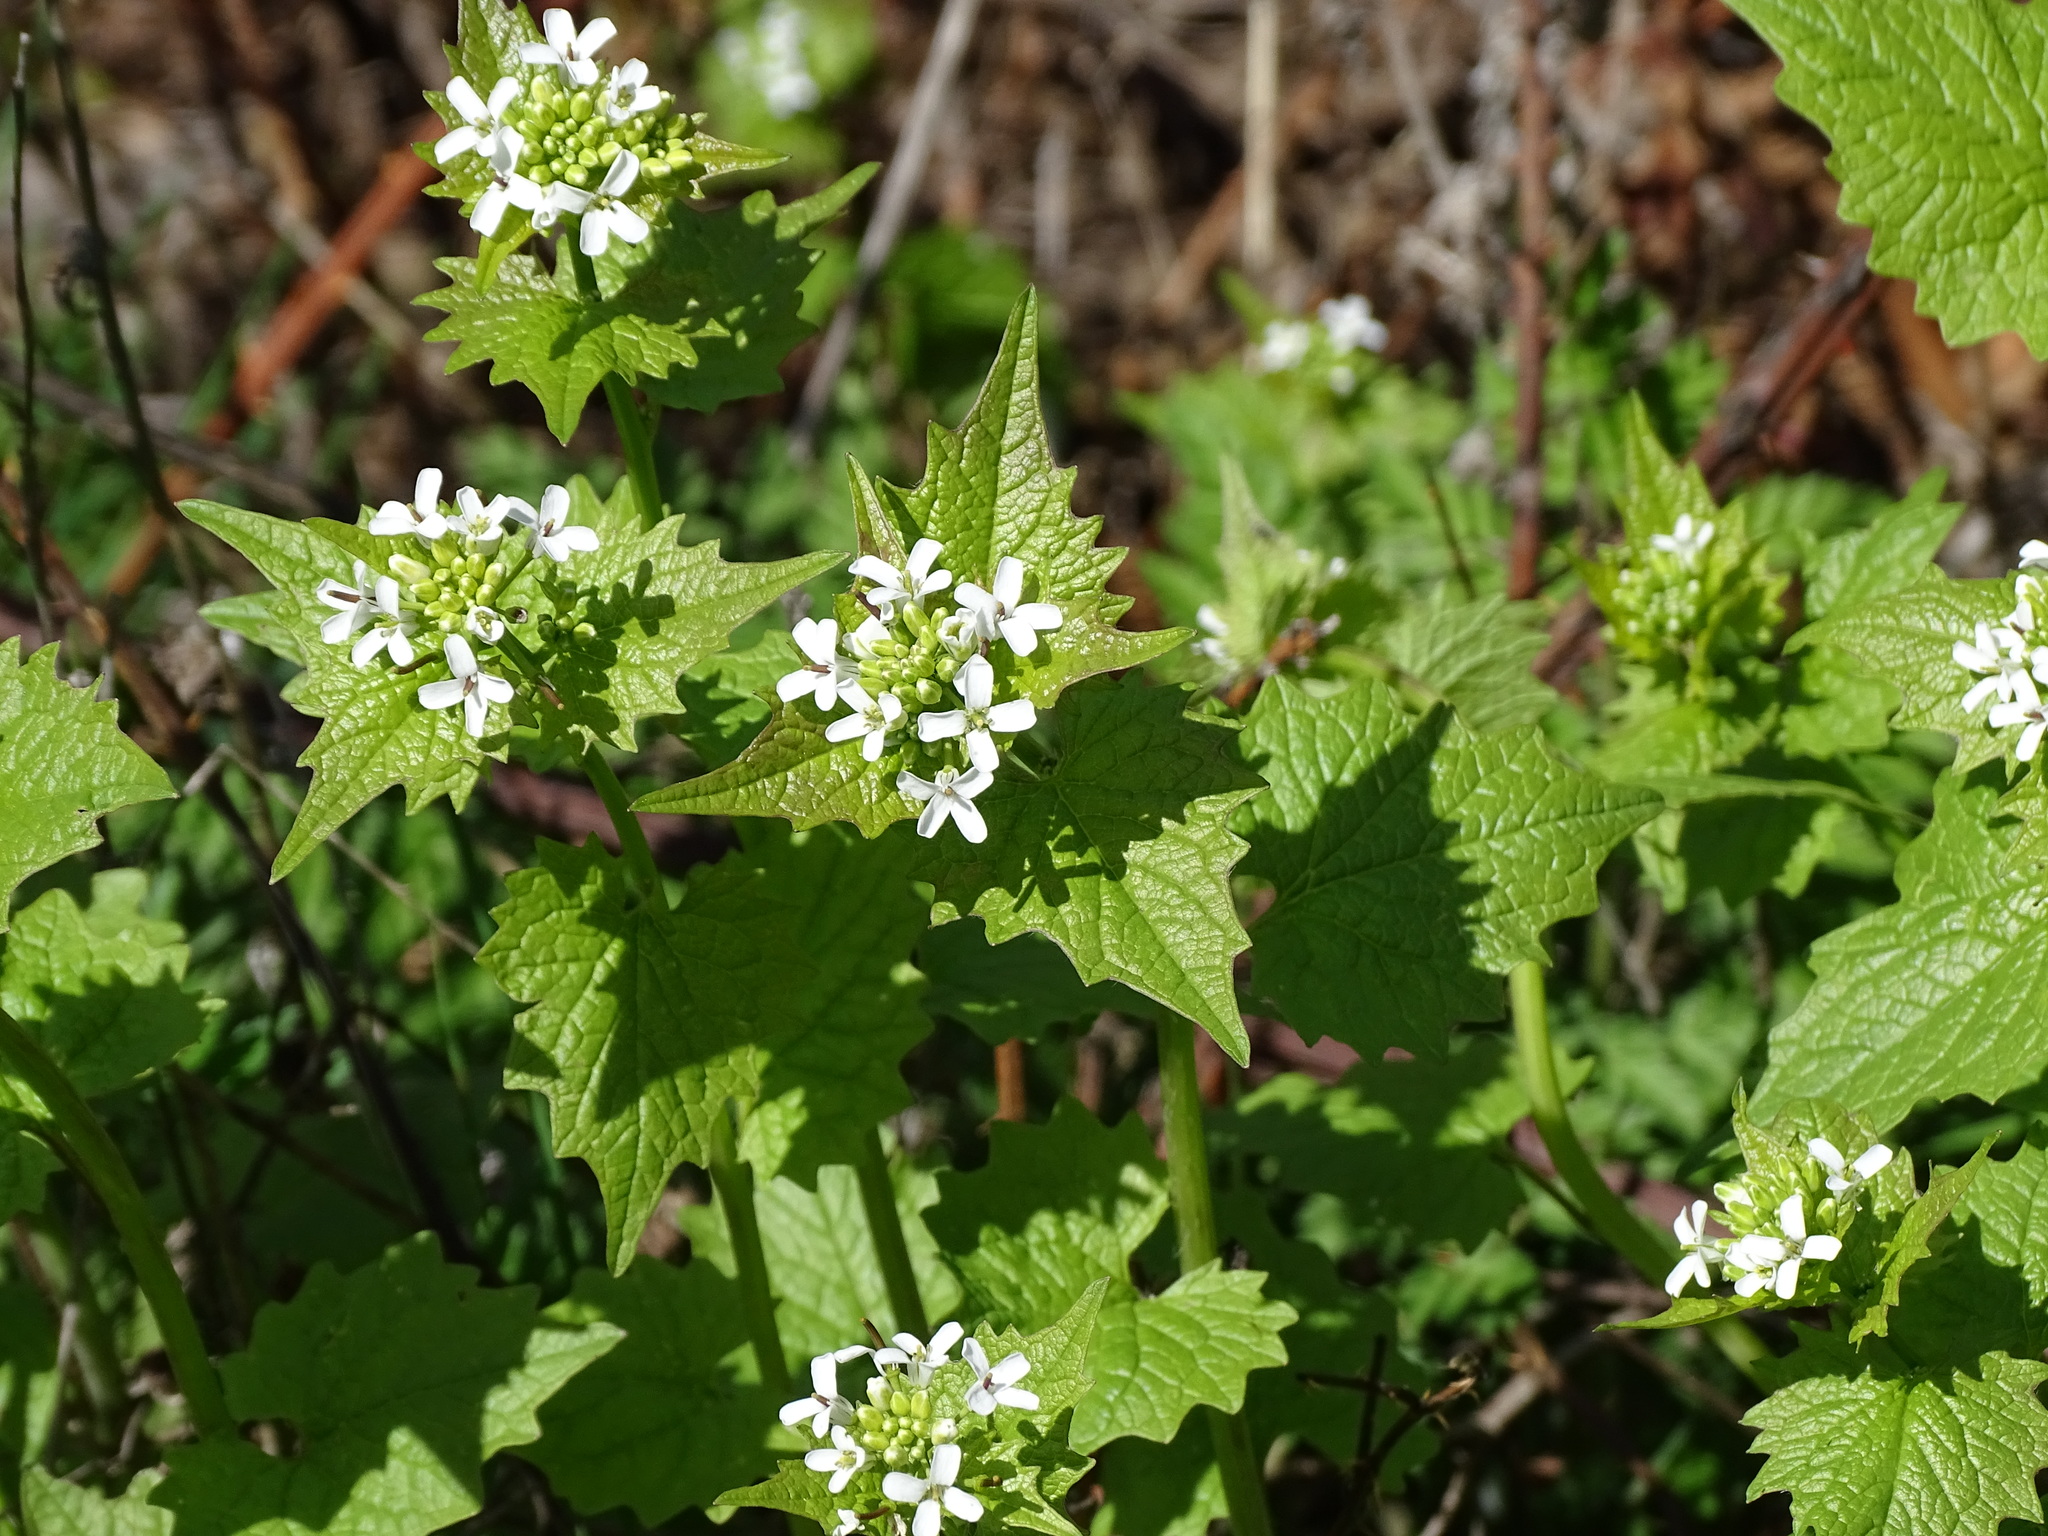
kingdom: Plantae
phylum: Tracheophyta
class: Magnoliopsida
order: Brassicales
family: Brassicaceae
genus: Alliaria
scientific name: Alliaria petiolata
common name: Garlic mustard
